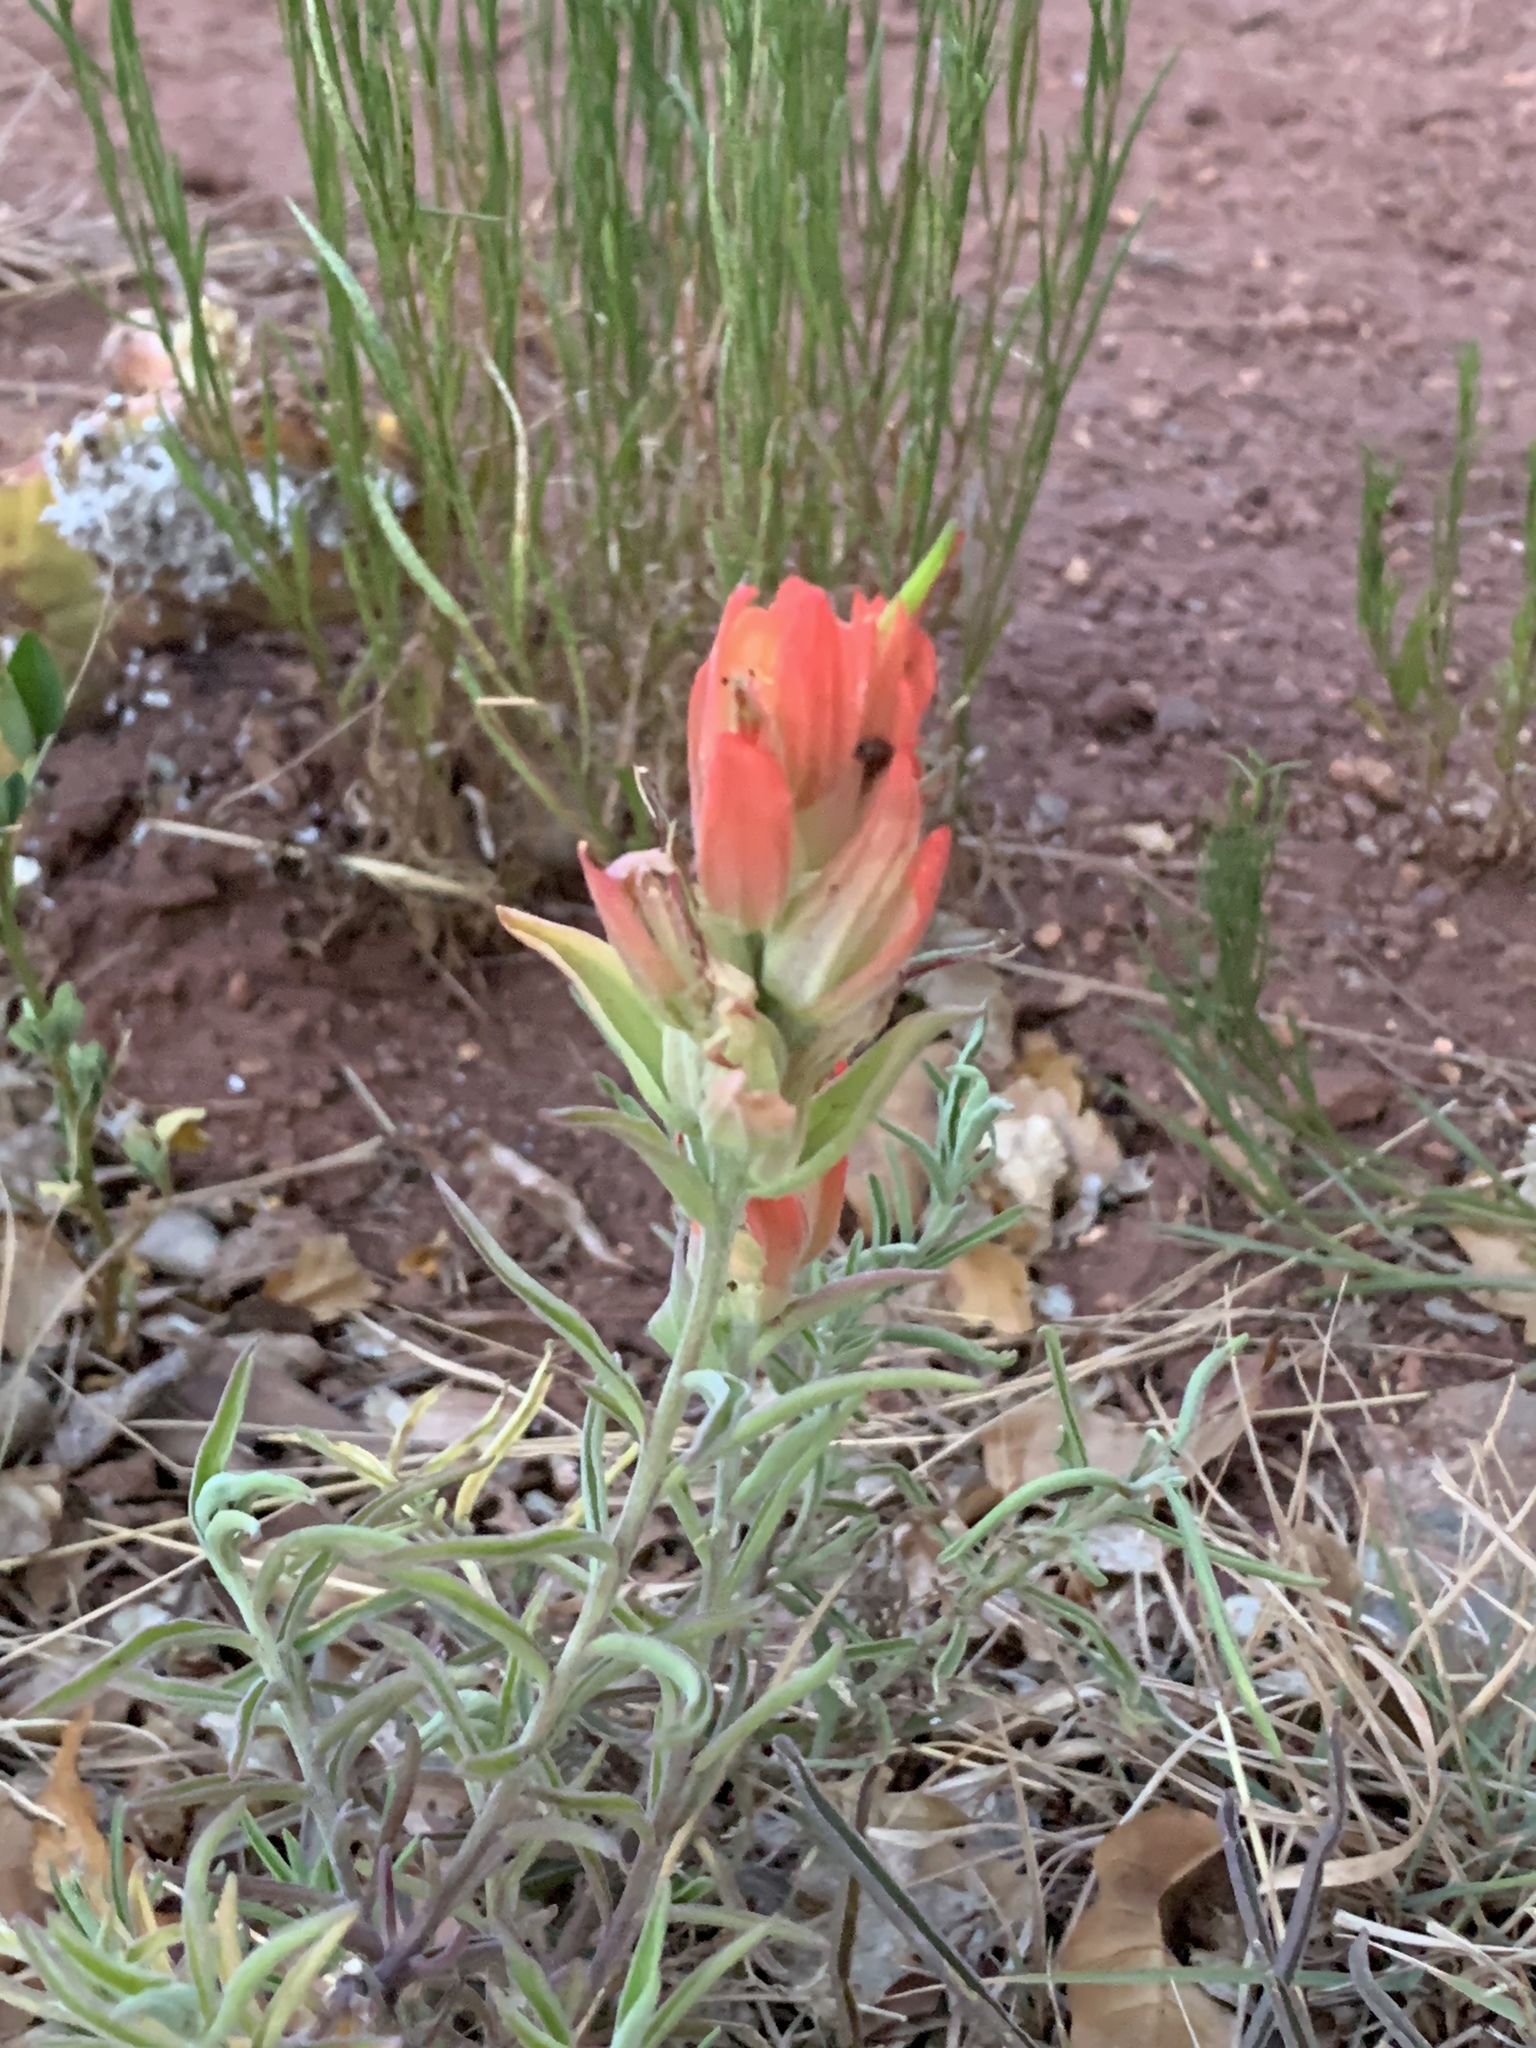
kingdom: Plantae
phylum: Tracheophyta
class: Magnoliopsida
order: Lamiales
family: Orobanchaceae
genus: Castilleja
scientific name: Castilleja integra
